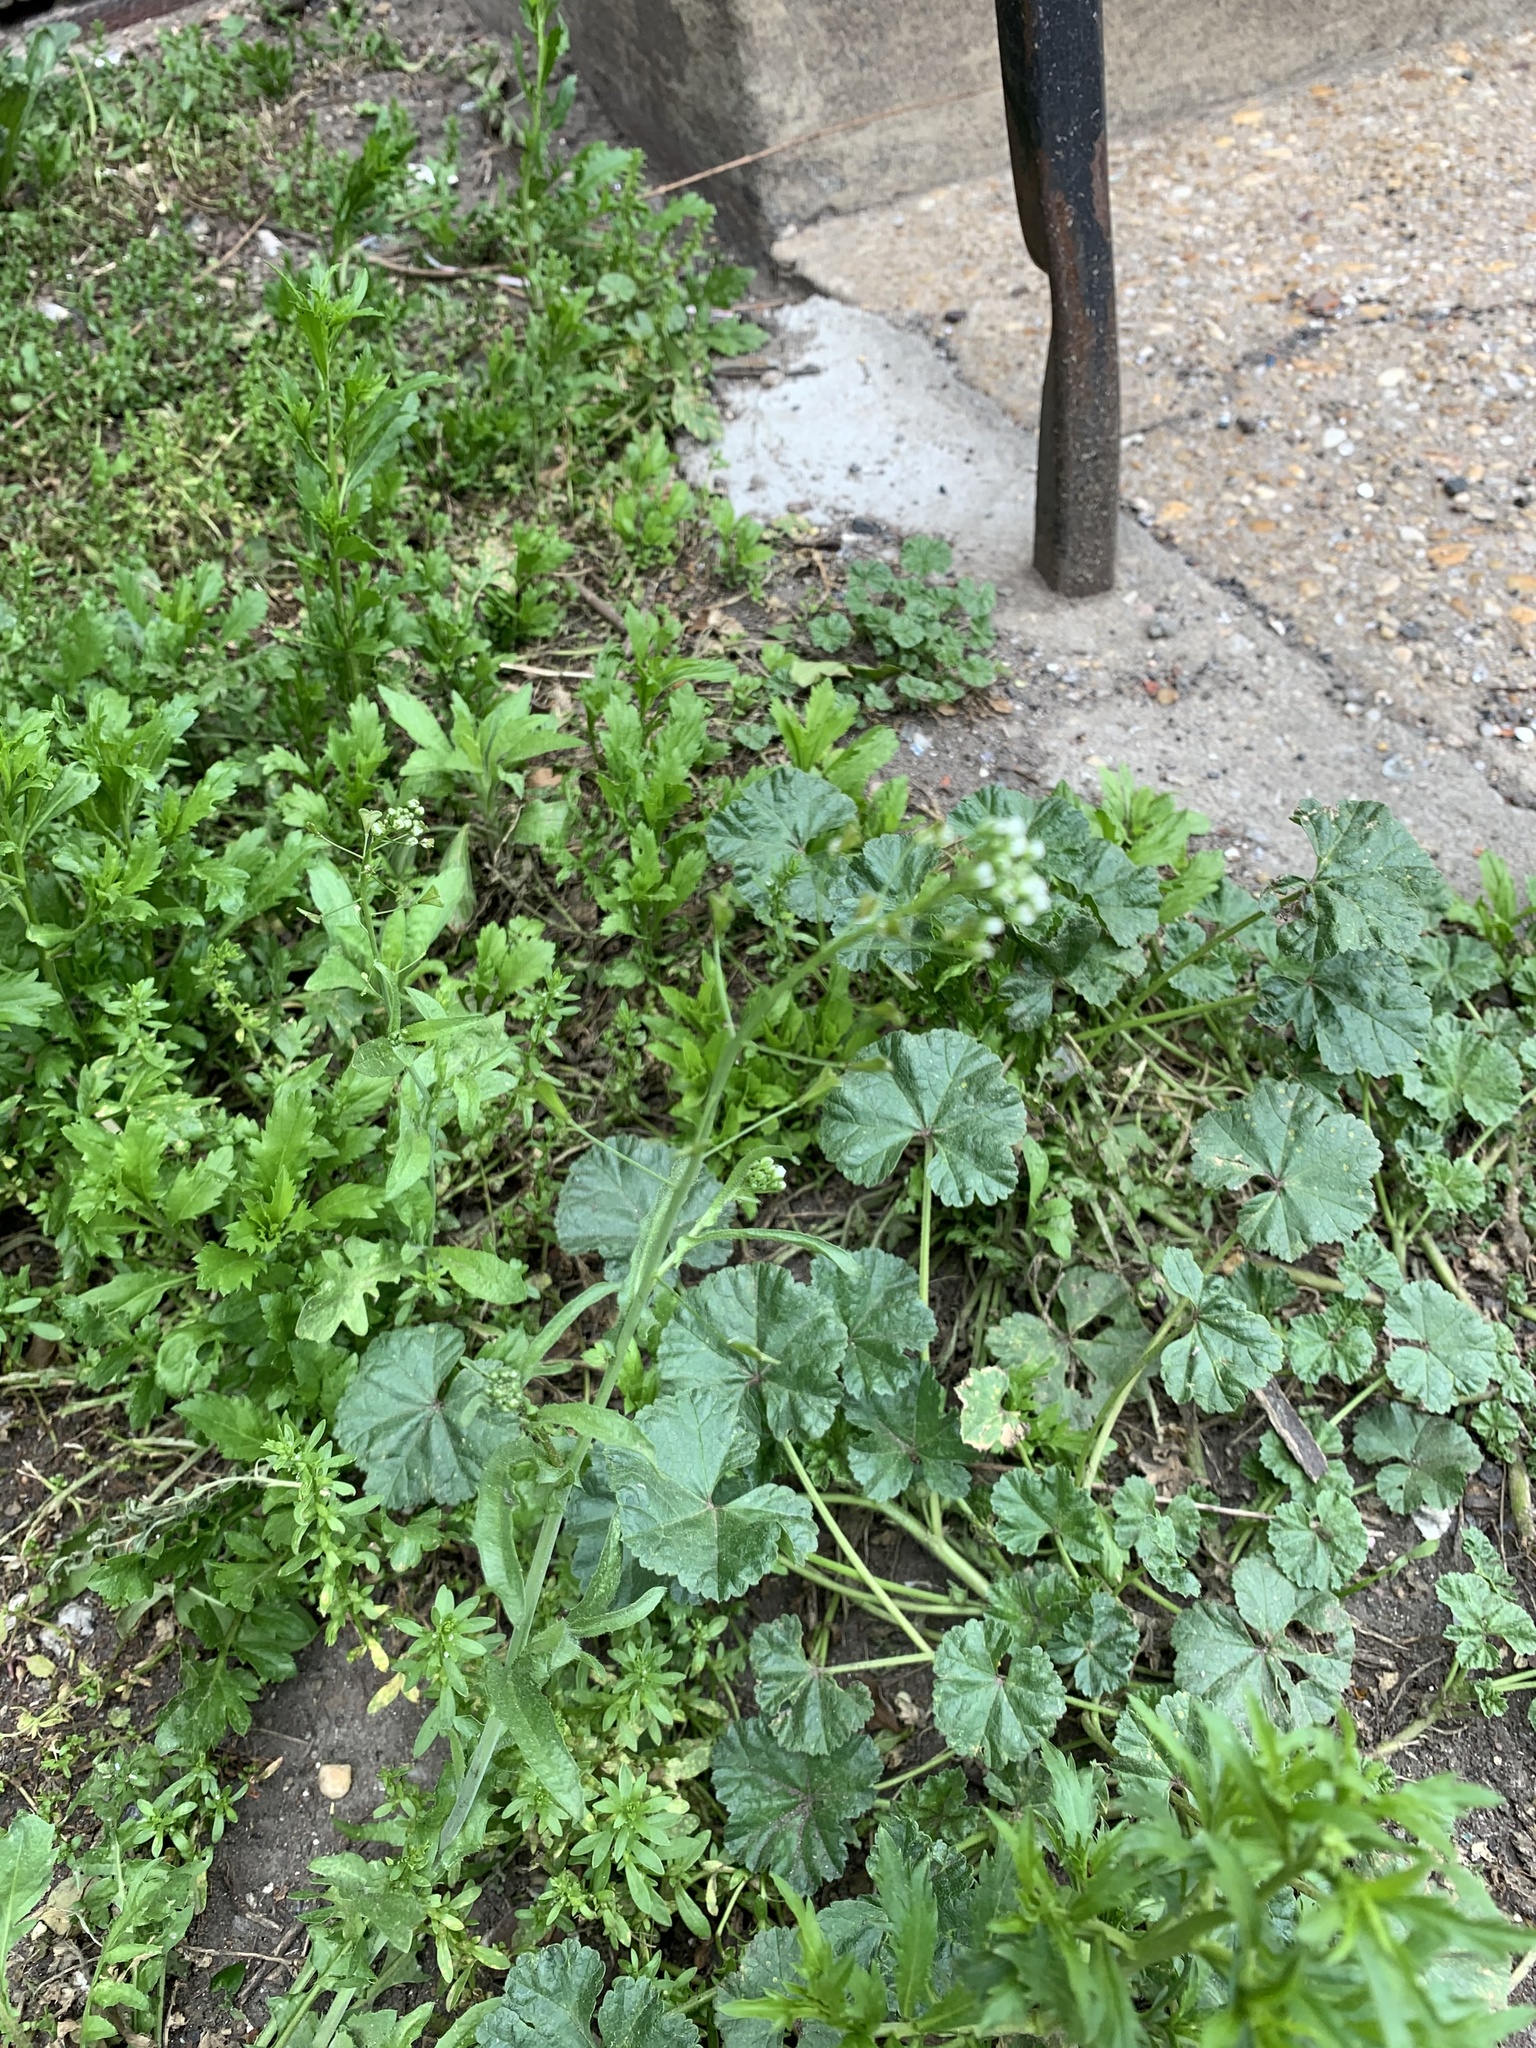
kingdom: Plantae
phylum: Tracheophyta
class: Magnoliopsida
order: Lamiales
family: Plantaginaceae
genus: Veronica
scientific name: Veronica peregrina
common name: Neckweed
